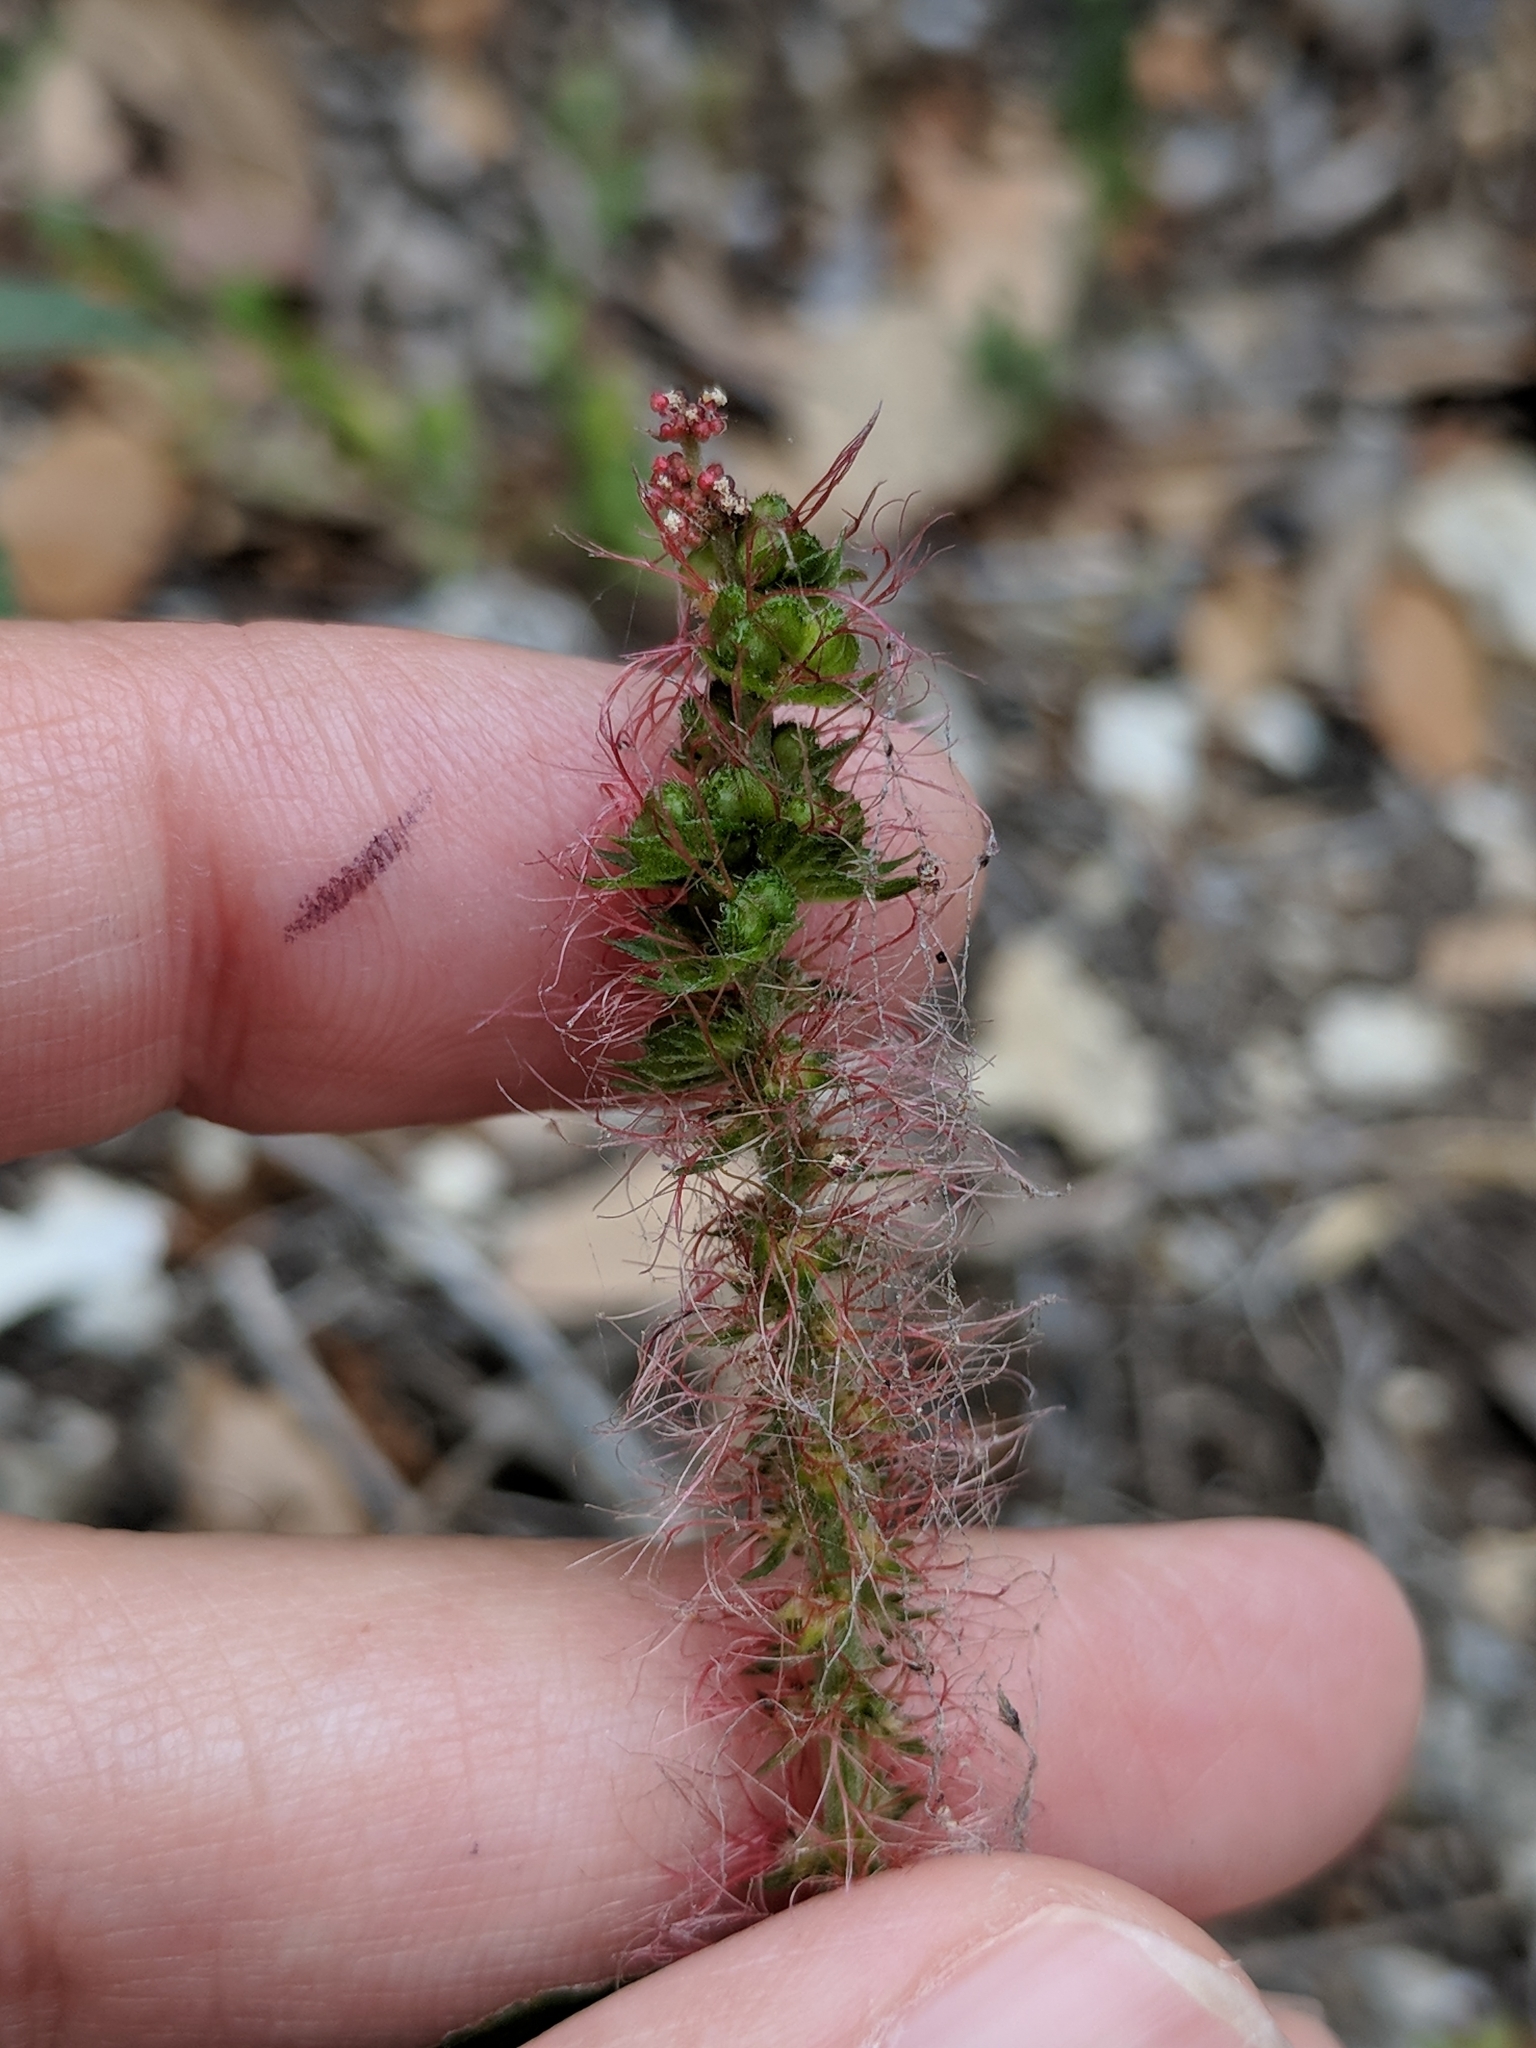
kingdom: Plantae
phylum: Tracheophyta
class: Magnoliopsida
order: Malpighiales
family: Euphorbiaceae
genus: Acalypha
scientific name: Acalypha phleoides
